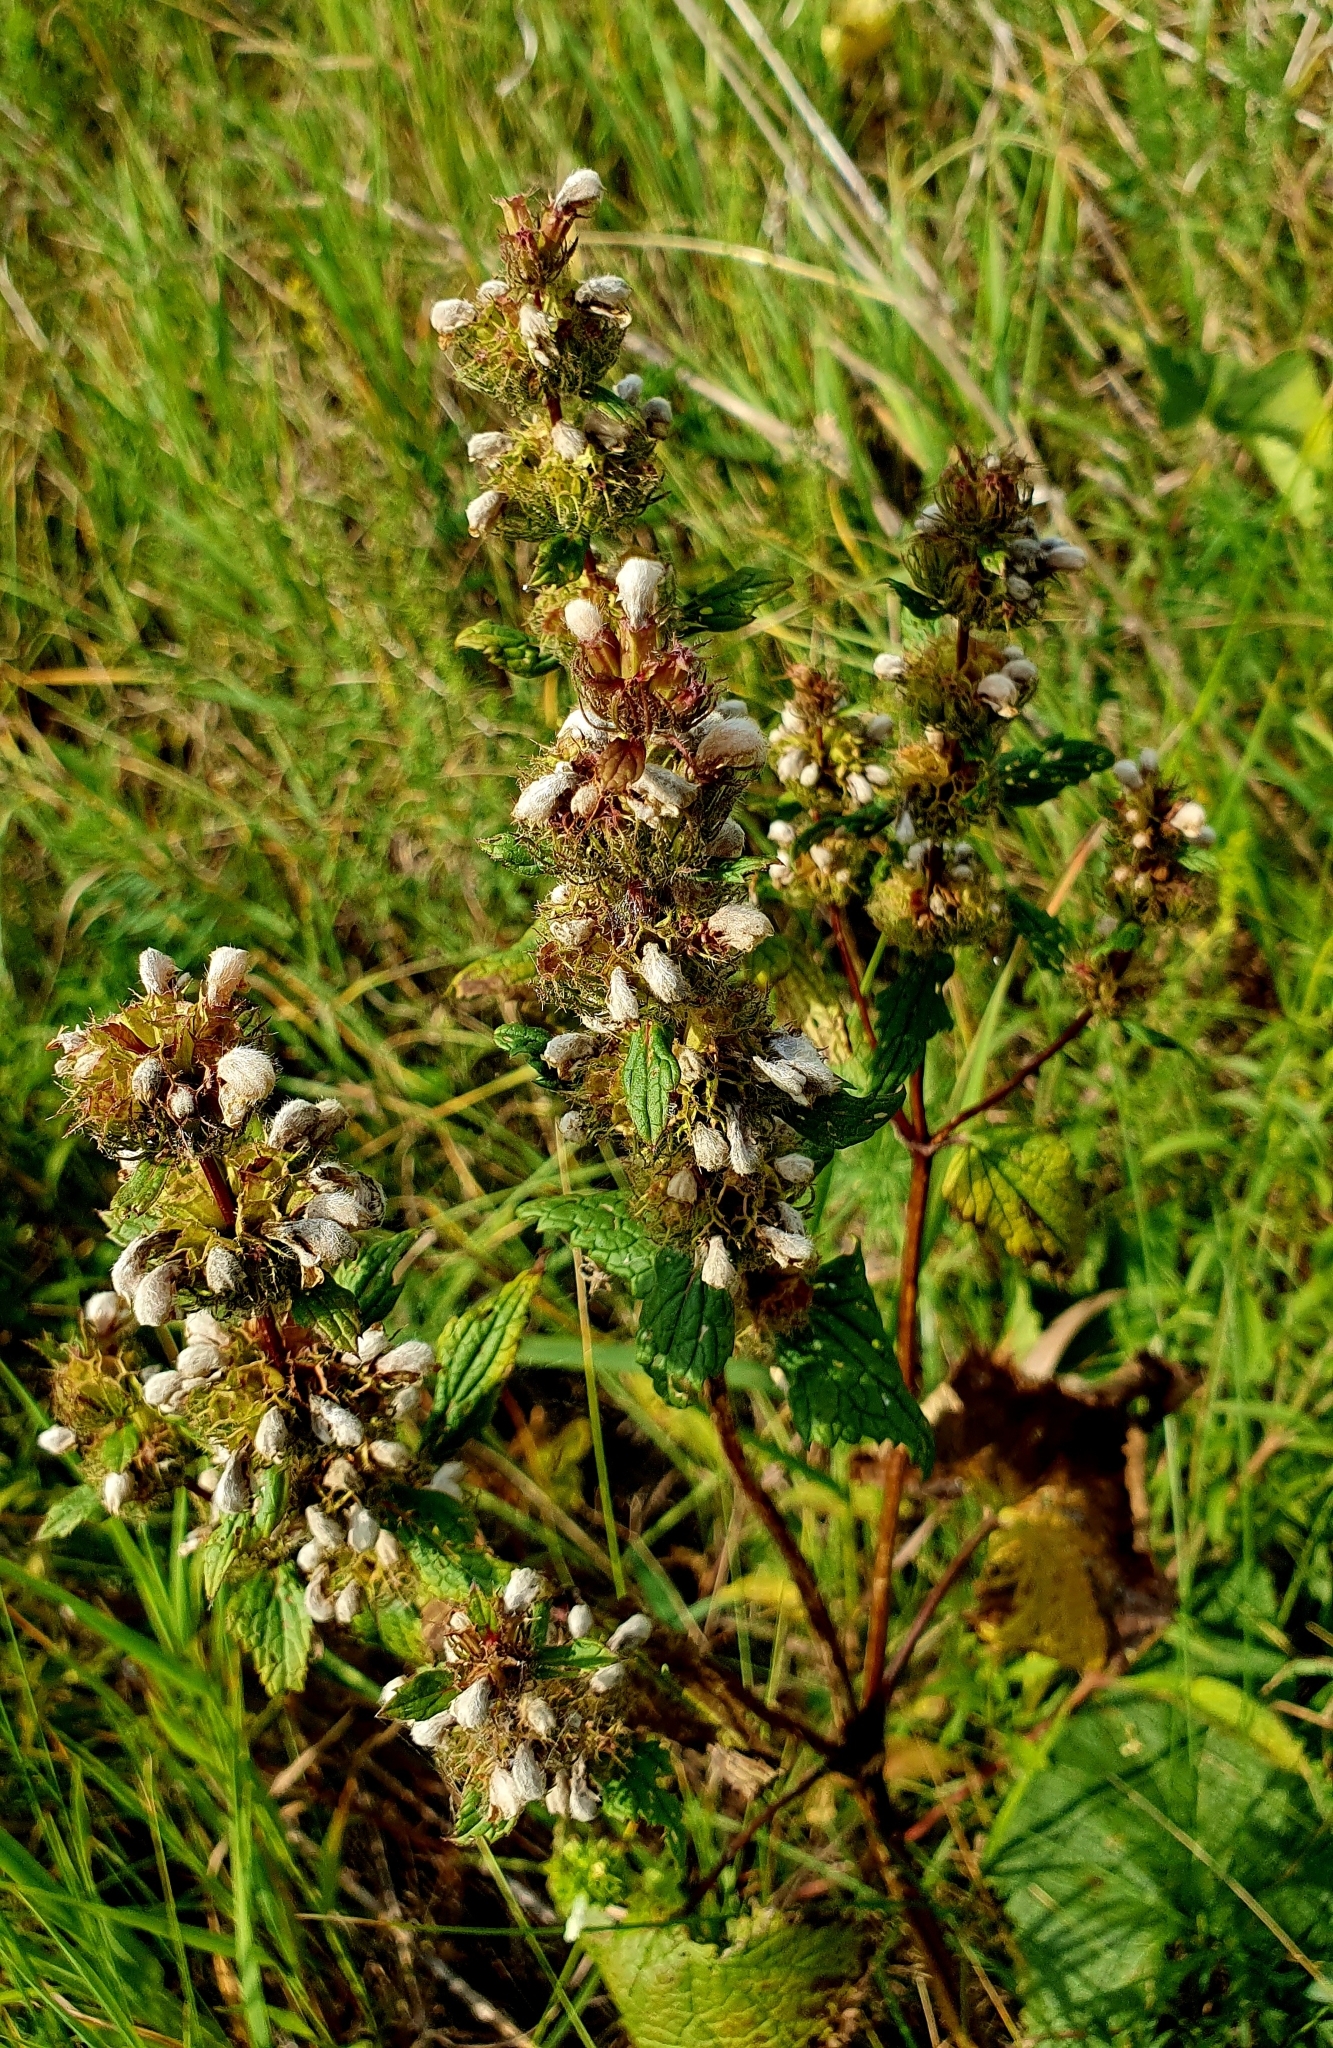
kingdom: Plantae
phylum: Tracheophyta
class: Magnoliopsida
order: Lamiales
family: Lamiaceae
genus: Phlomoides
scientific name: Phlomoides tuberosa
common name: Tuberous jerusalem sage
